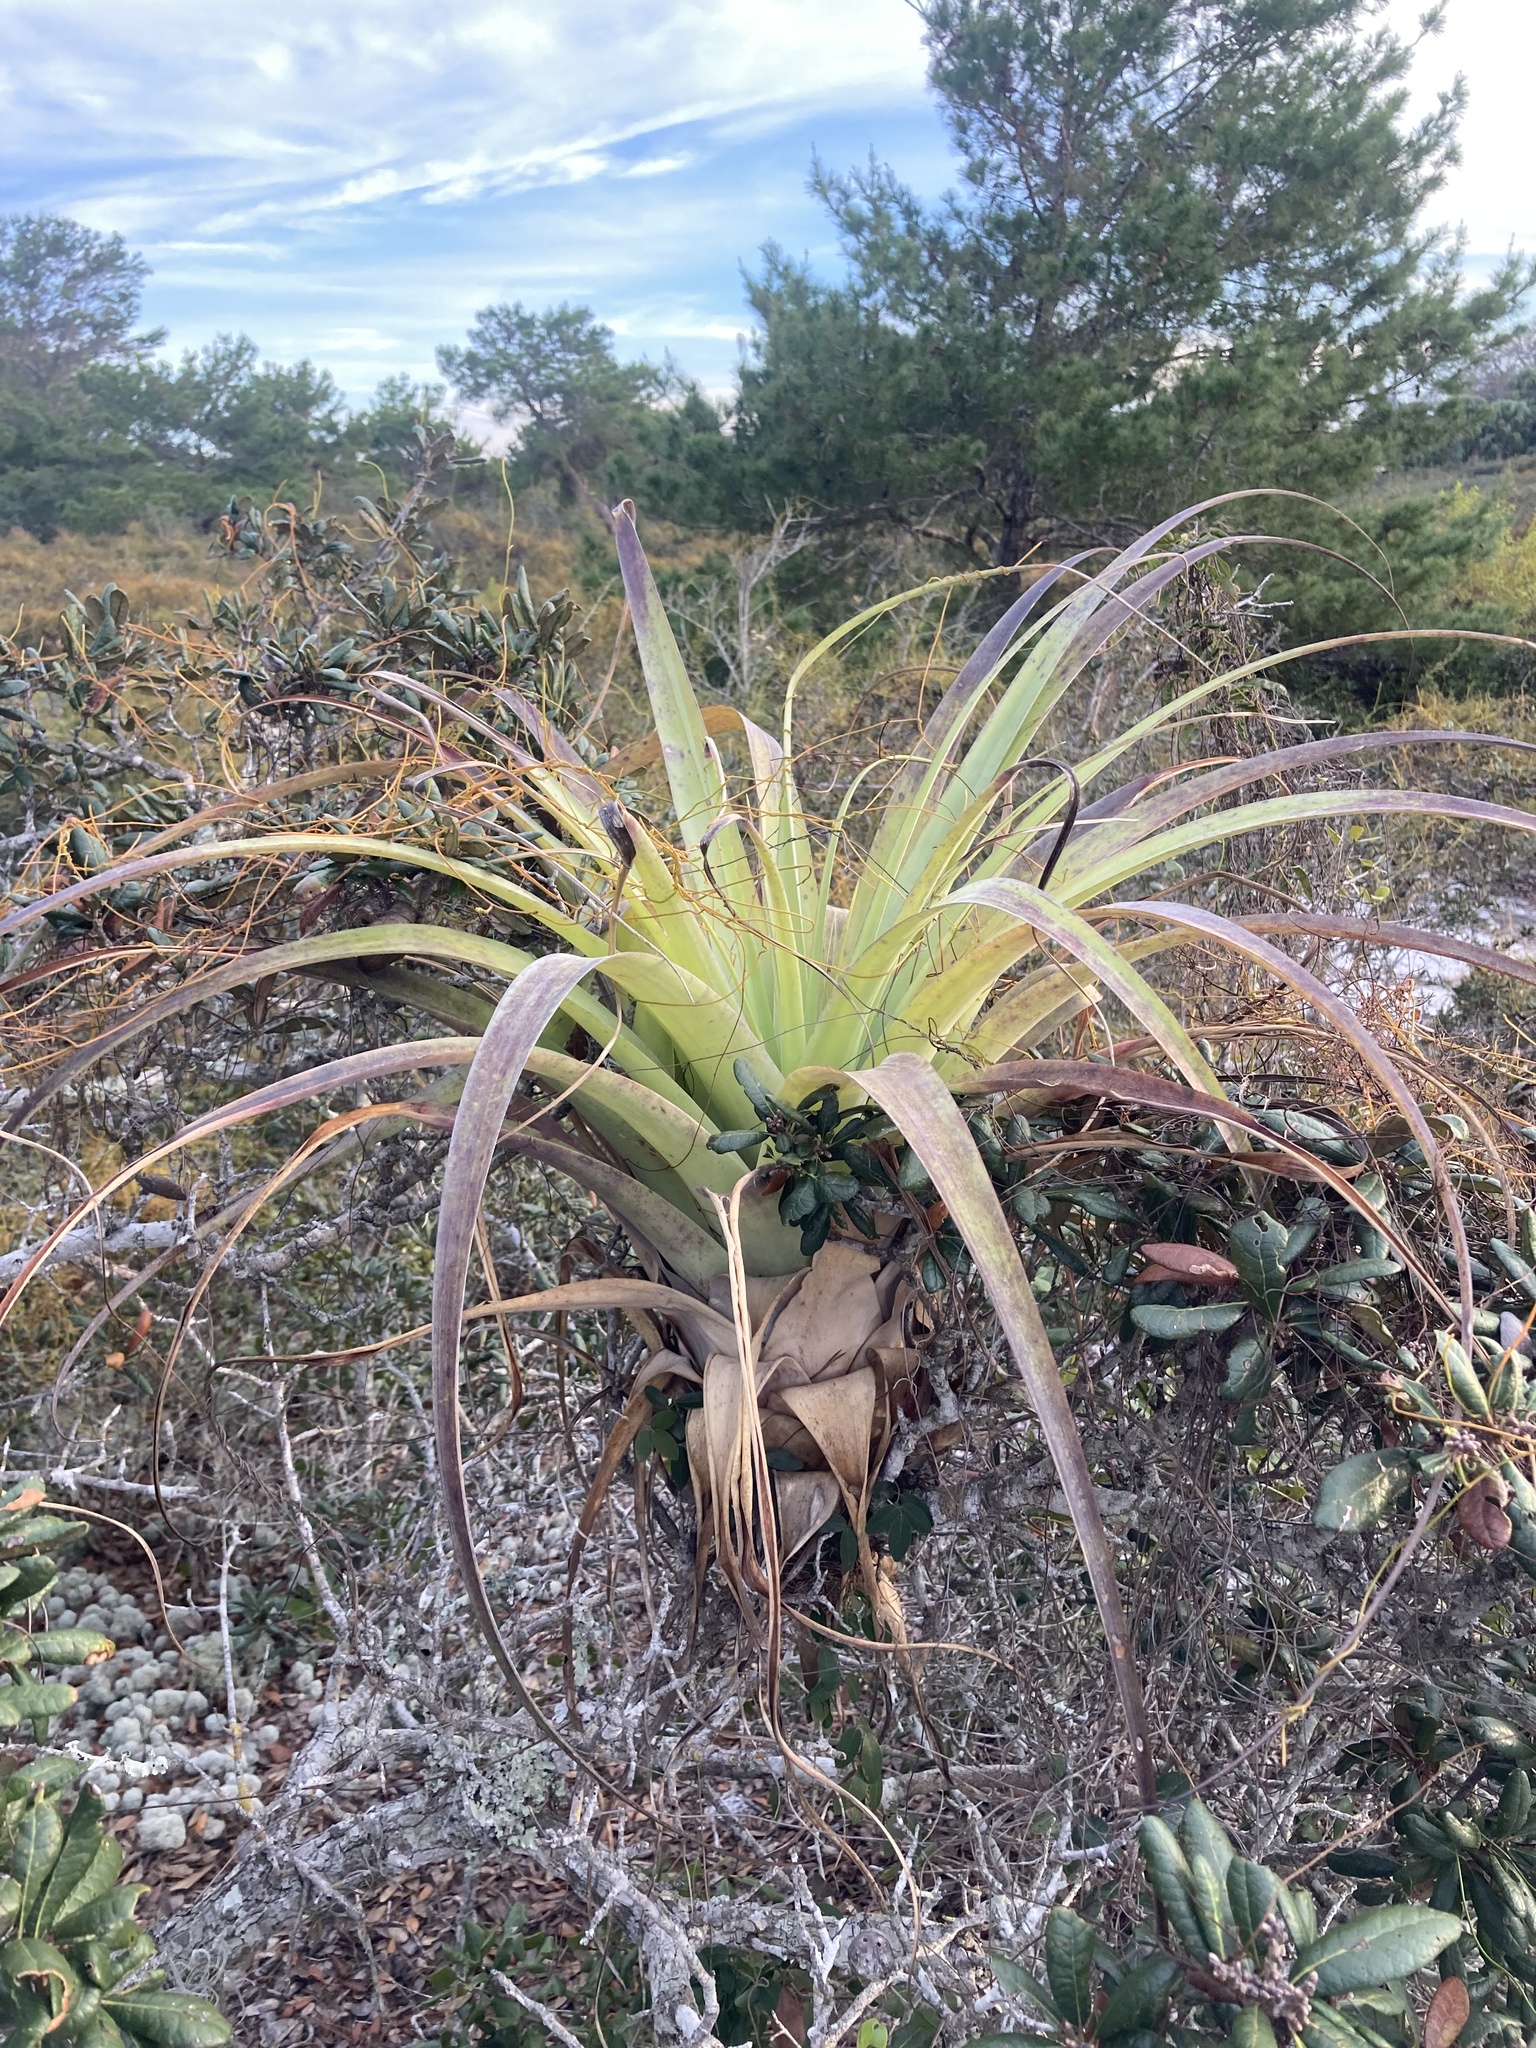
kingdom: Plantae
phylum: Tracheophyta
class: Liliopsida
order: Poales
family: Bromeliaceae
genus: Tillandsia
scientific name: Tillandsia utriculata
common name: Wild pine
